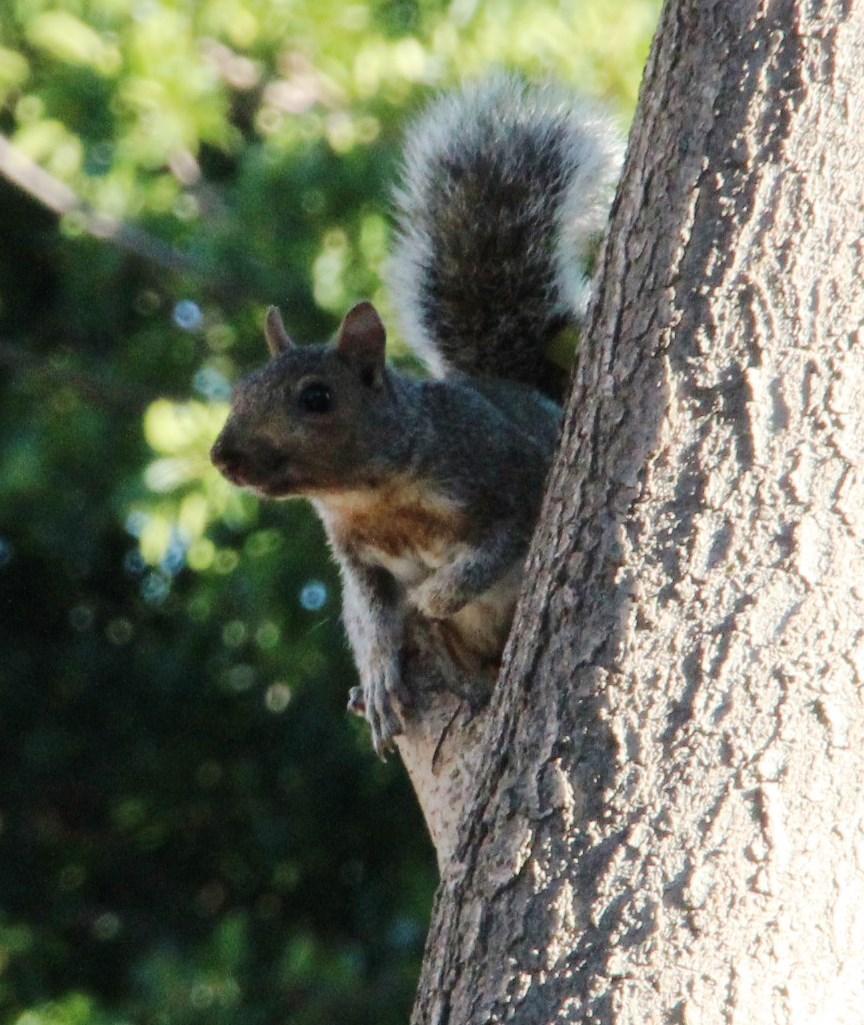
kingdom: Animalia
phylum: Chordata
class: Mammalia
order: Rodentia
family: Sciuridae
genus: Sciurus
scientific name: Sciurus carolinensis
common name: Eastern gray squirrel
